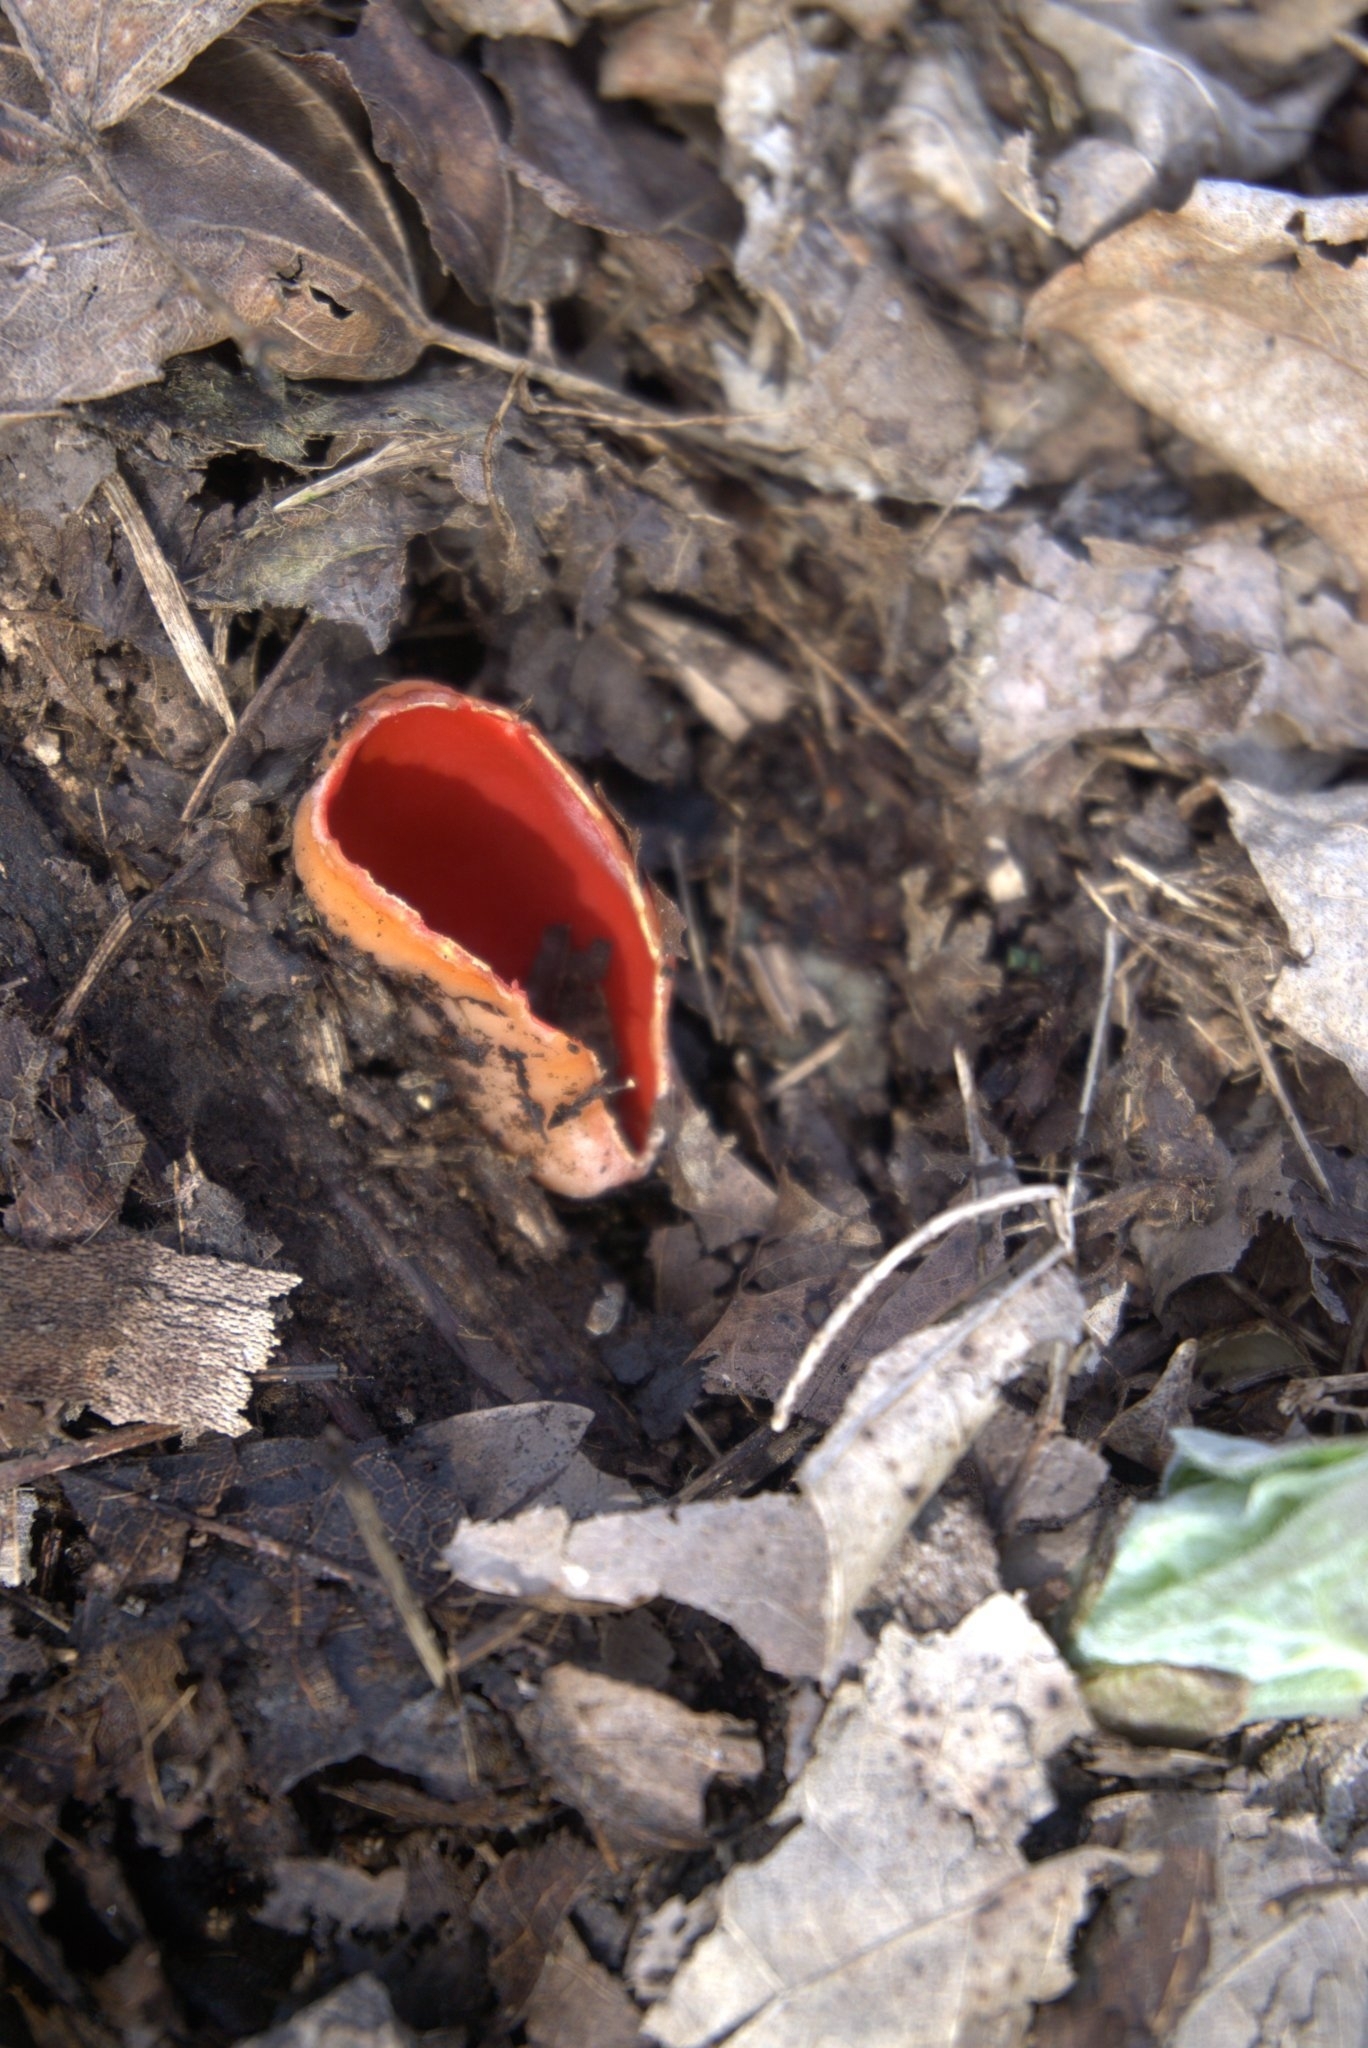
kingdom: Fungi
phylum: Ascomycota
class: Pezizomycetes
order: Pezizales
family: Sarcoscyphaceae
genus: Sarcoscypha
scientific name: Sarcoscypha
